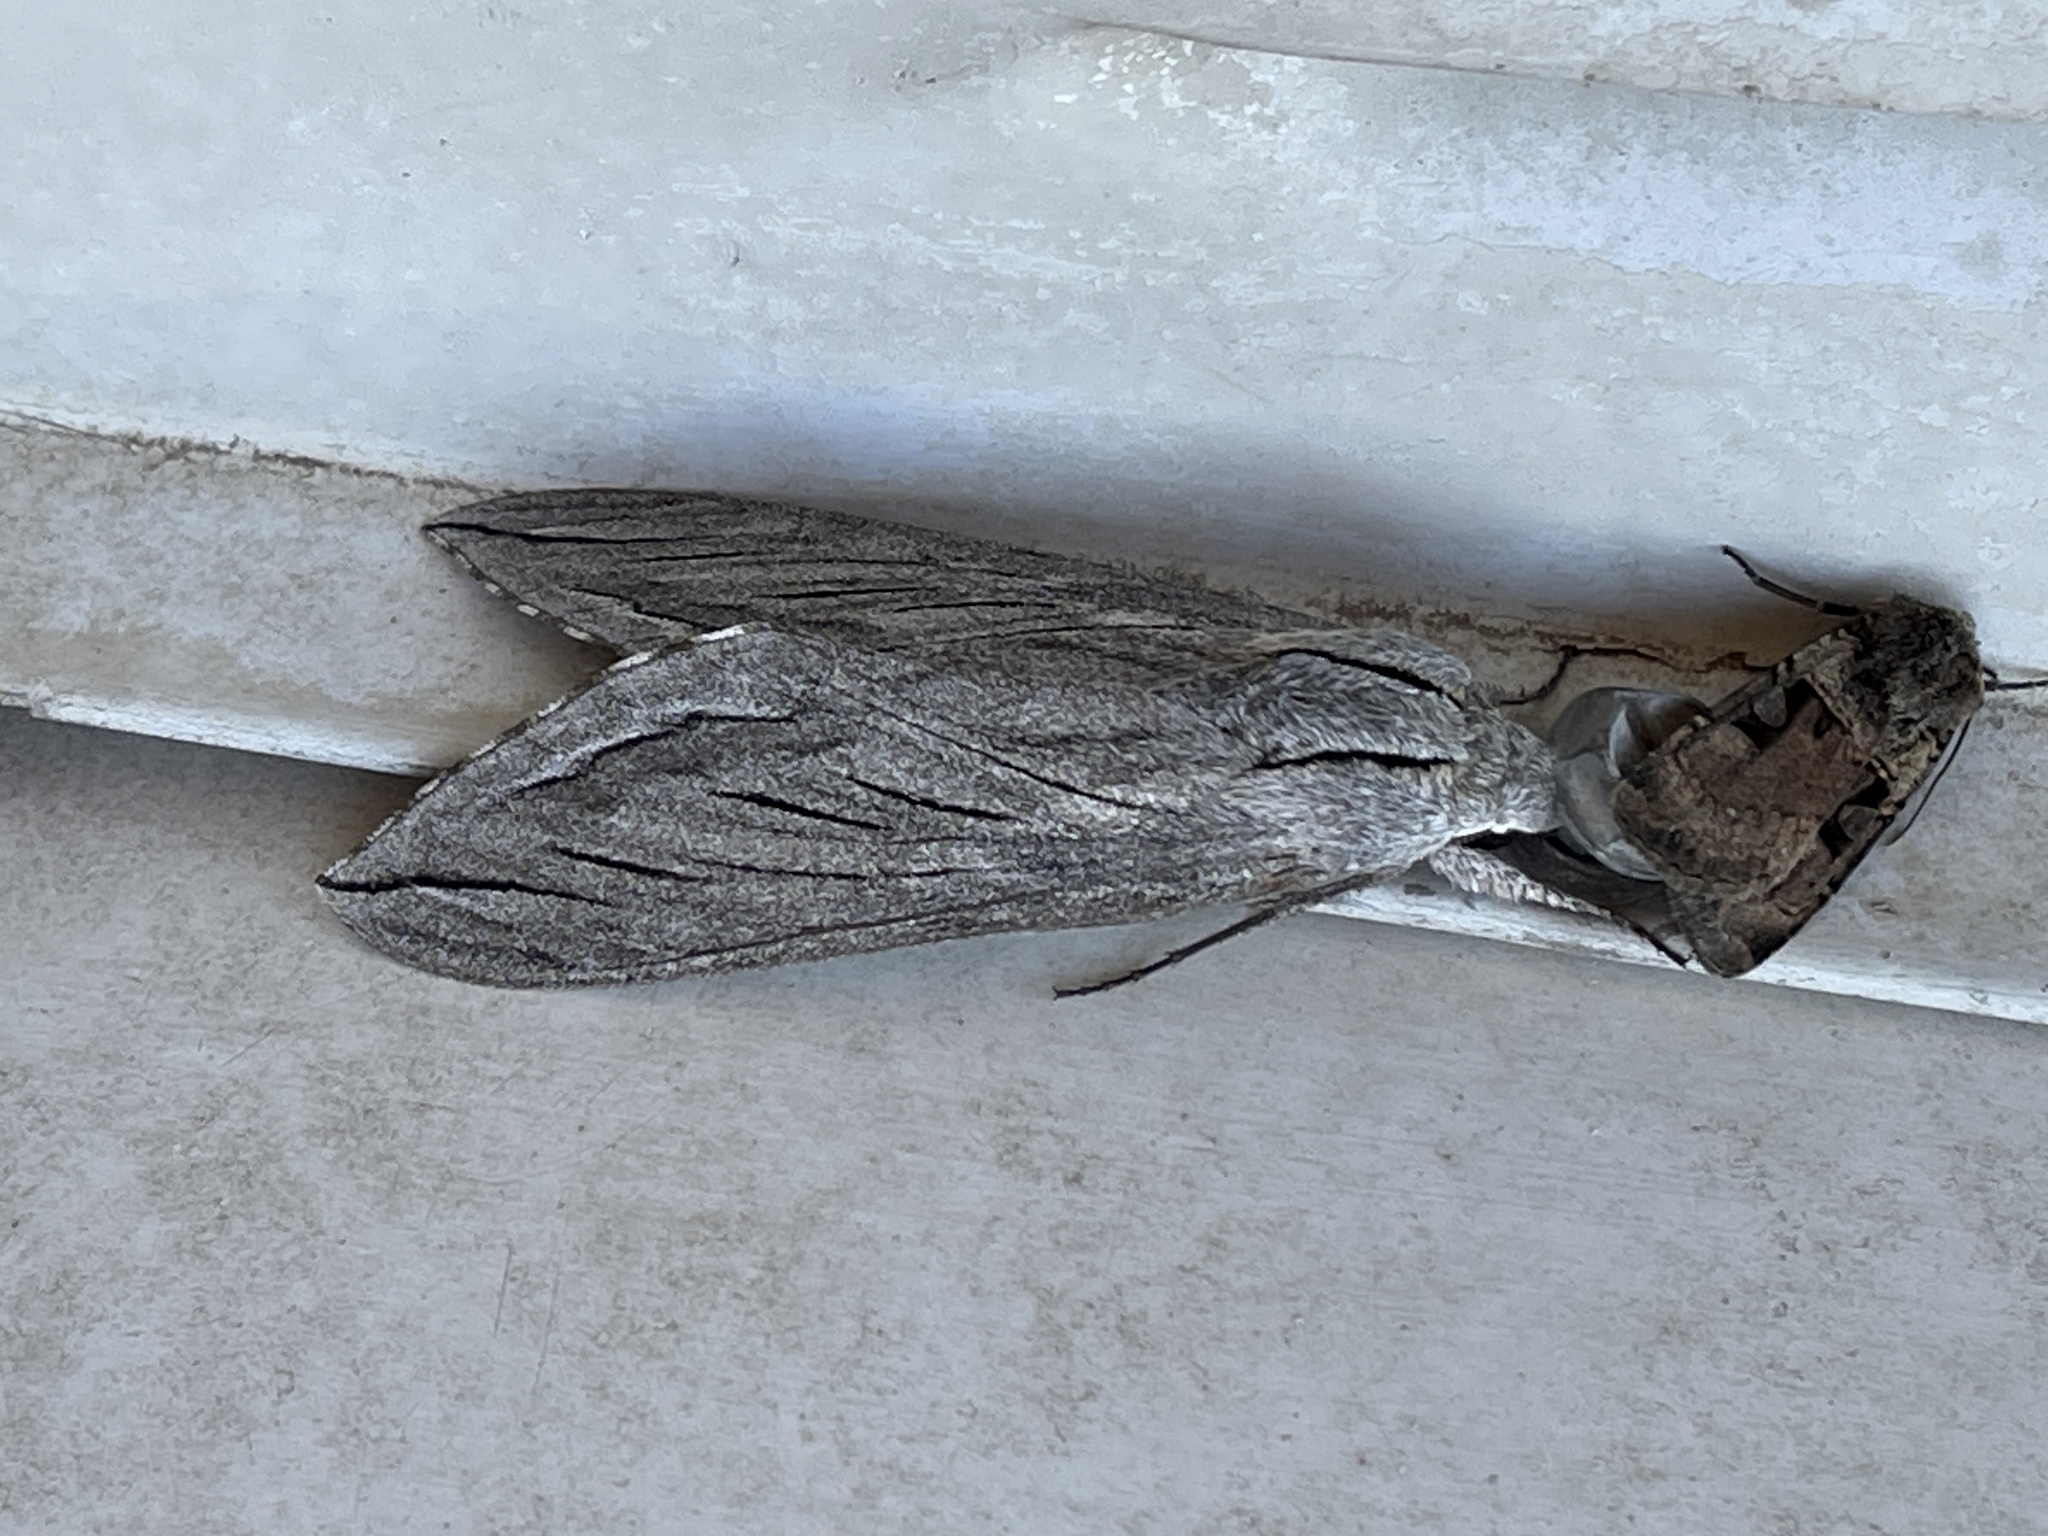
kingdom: Animalia
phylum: Arthropoda
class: Insecta
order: Lepidoptera
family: Sphingidae
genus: Sphinx
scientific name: Sphinx chersis
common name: Great ash sphinx
